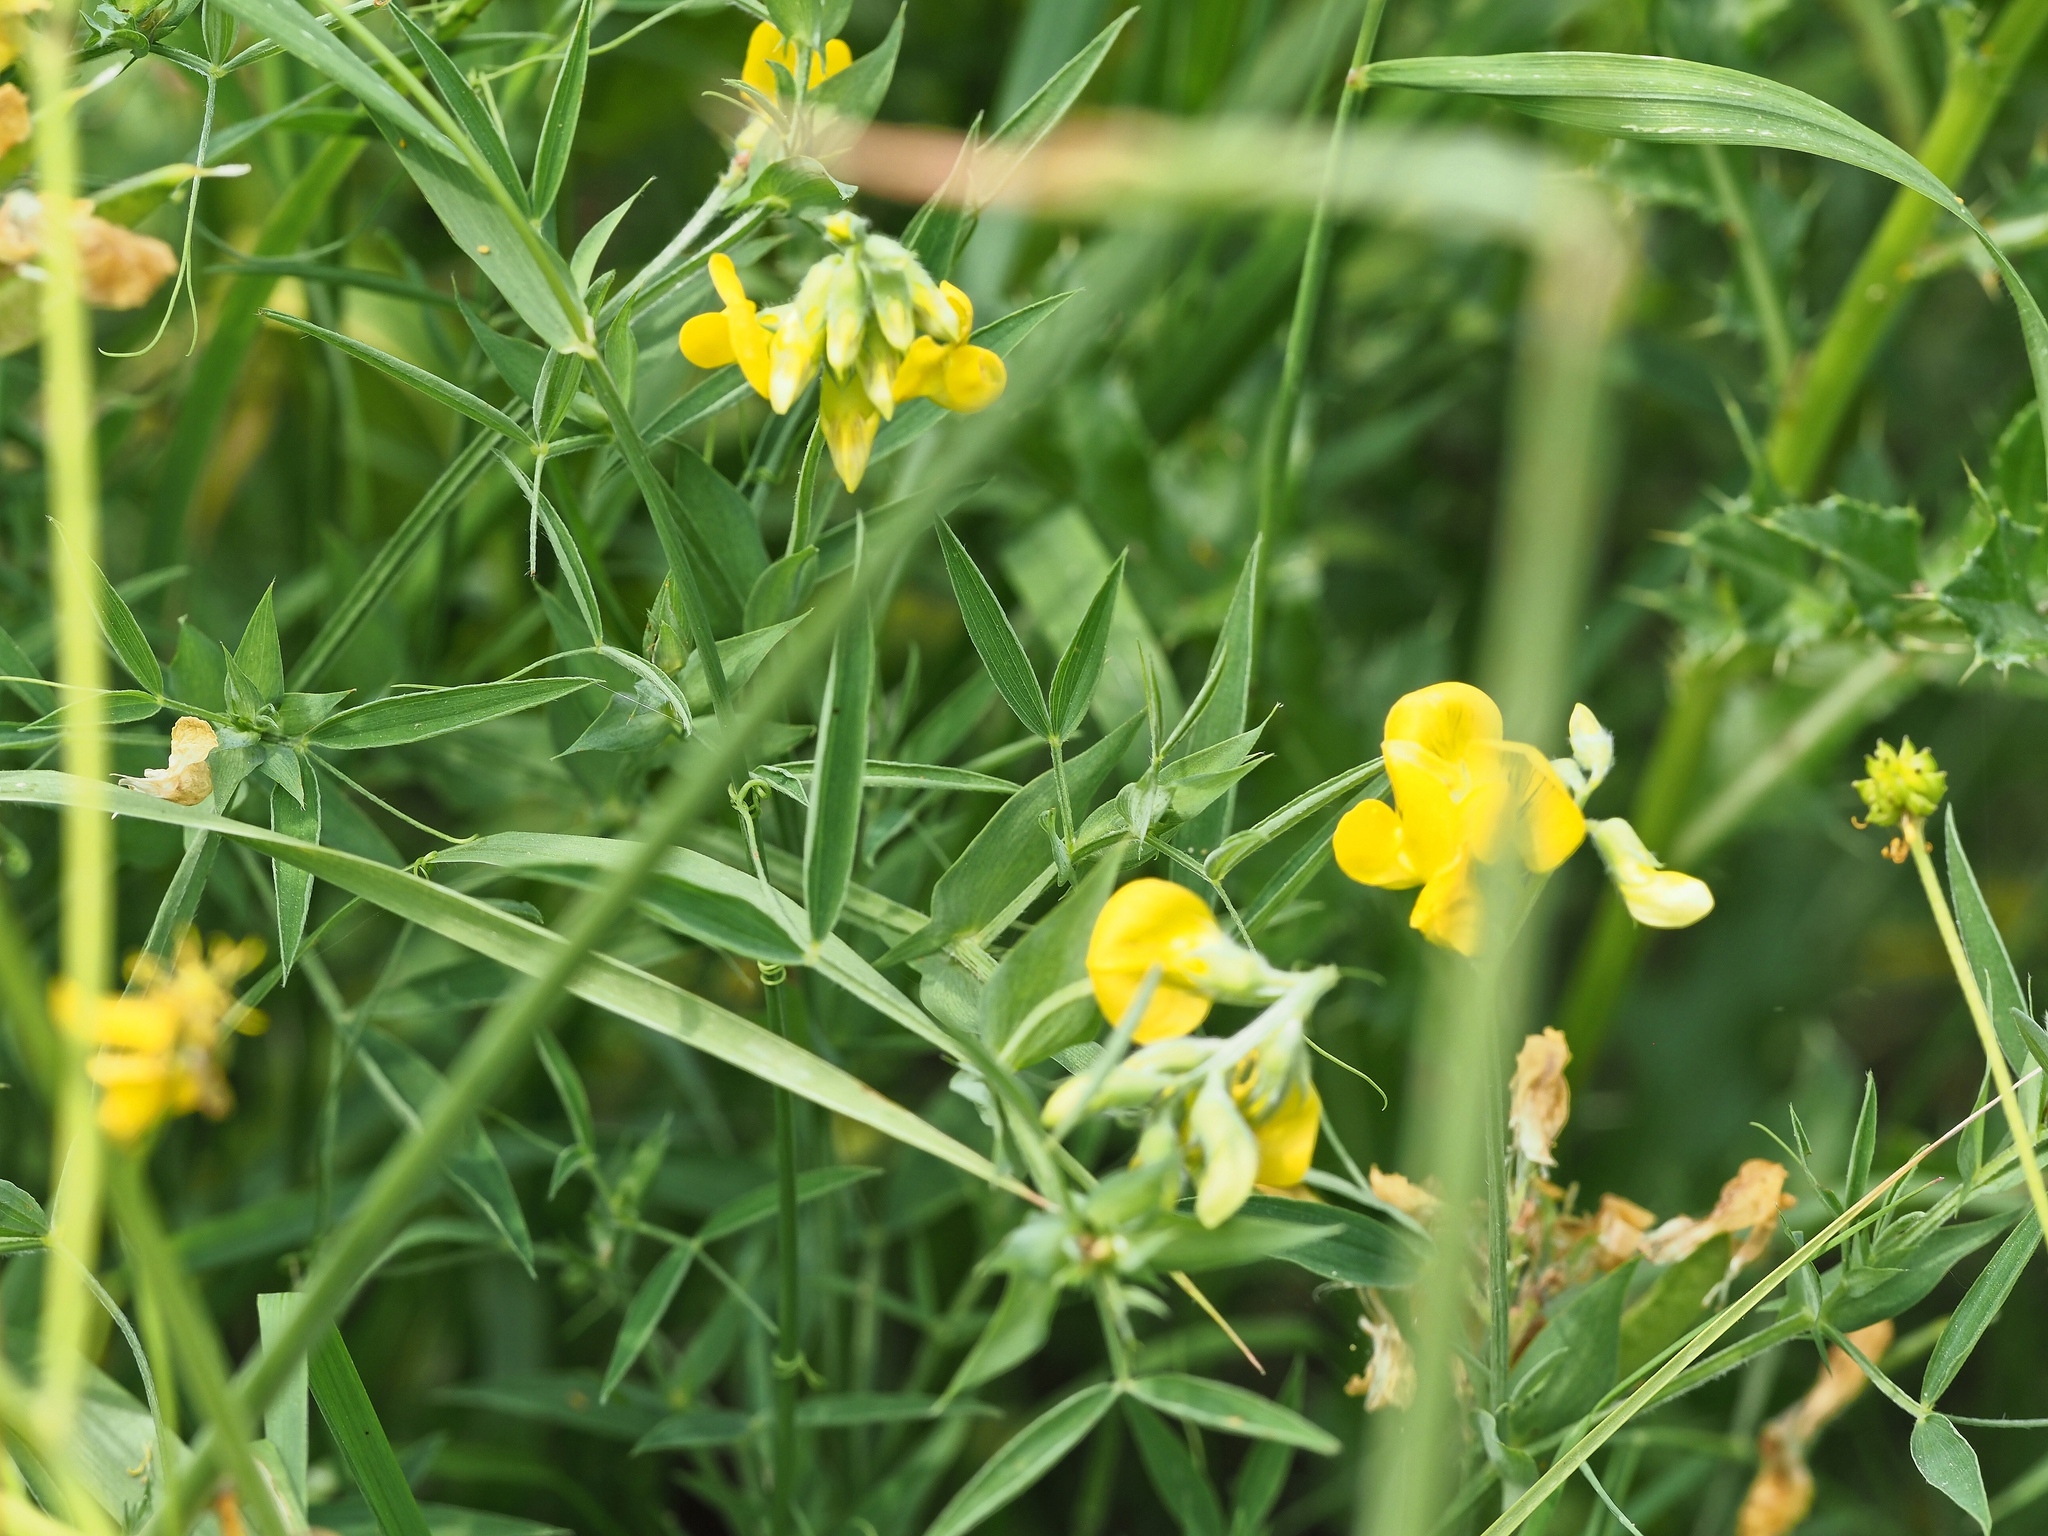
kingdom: Plantae
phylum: Tracheophyta
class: Magnoliopsida
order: Fabales
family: Fabaceae
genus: Lathyrus
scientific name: Lathyrus pratensis
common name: Meadow vetchling
